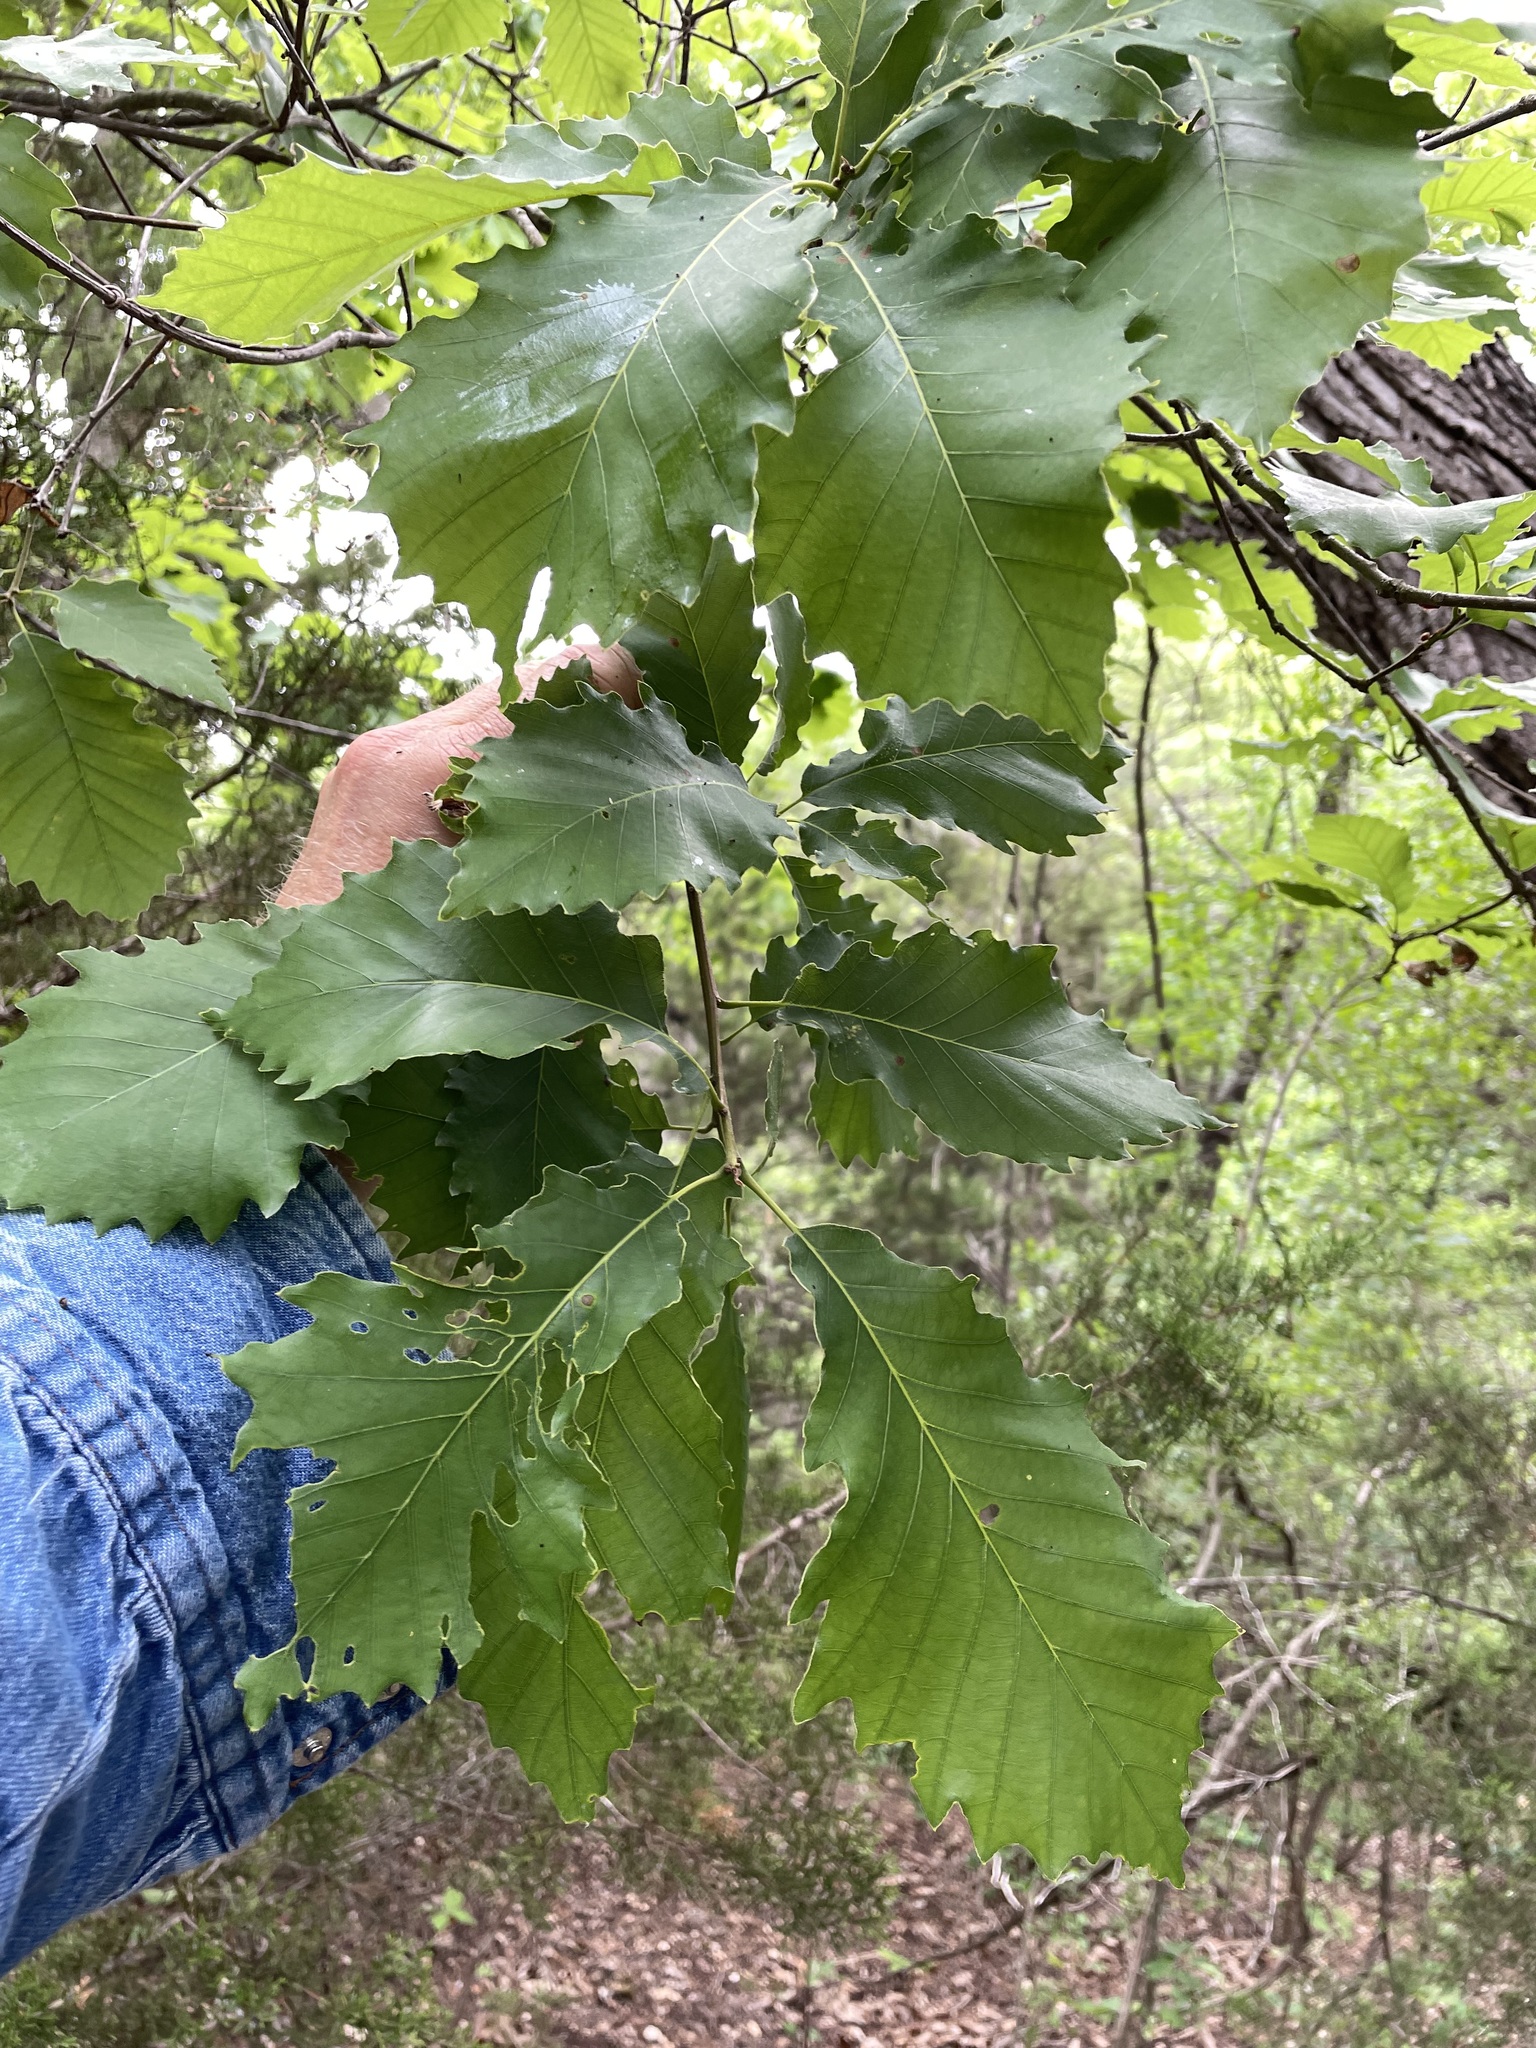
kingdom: Plantae
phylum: Tracheophyta
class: Magnoliopsida
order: Fagales
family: Fagaceae
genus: Quercus
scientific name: Quercus muehlenbergii
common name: Chinkapin oak
